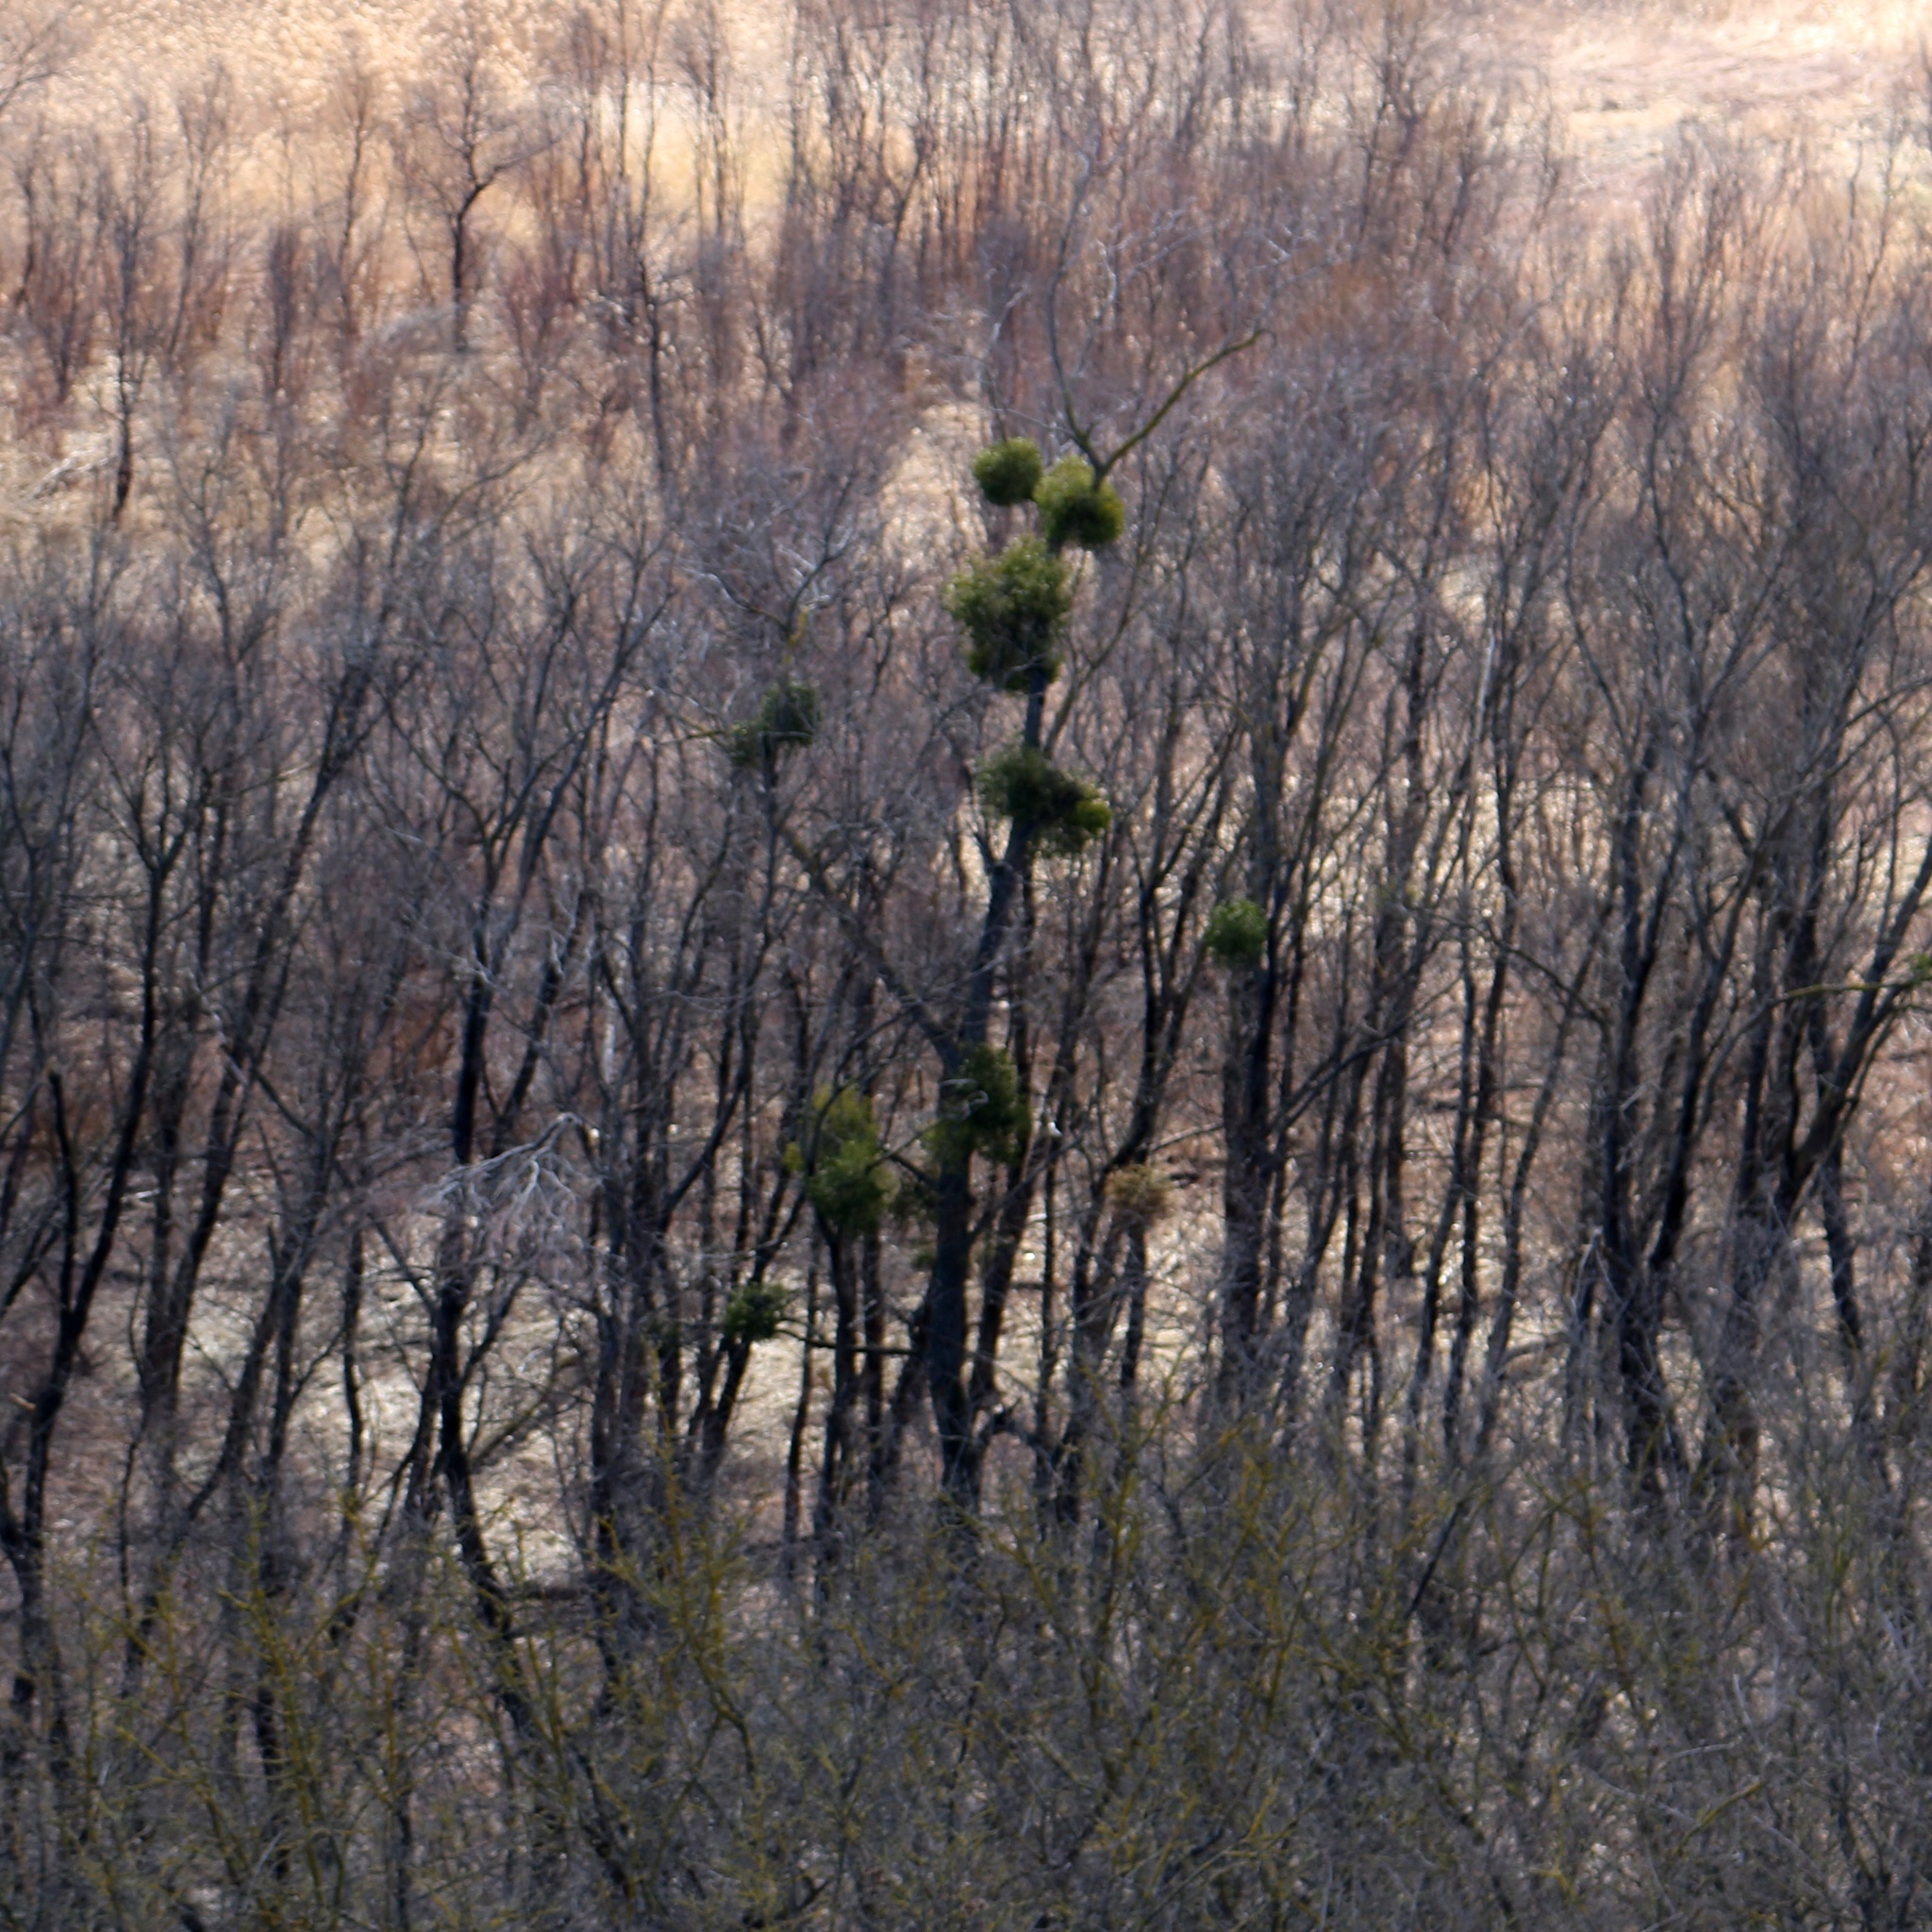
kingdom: Plantae
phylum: Tracheophyta
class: Magnoliopsida
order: Santalales
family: Viscaceae
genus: Viscum
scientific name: Viscum album
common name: Mistletoe
